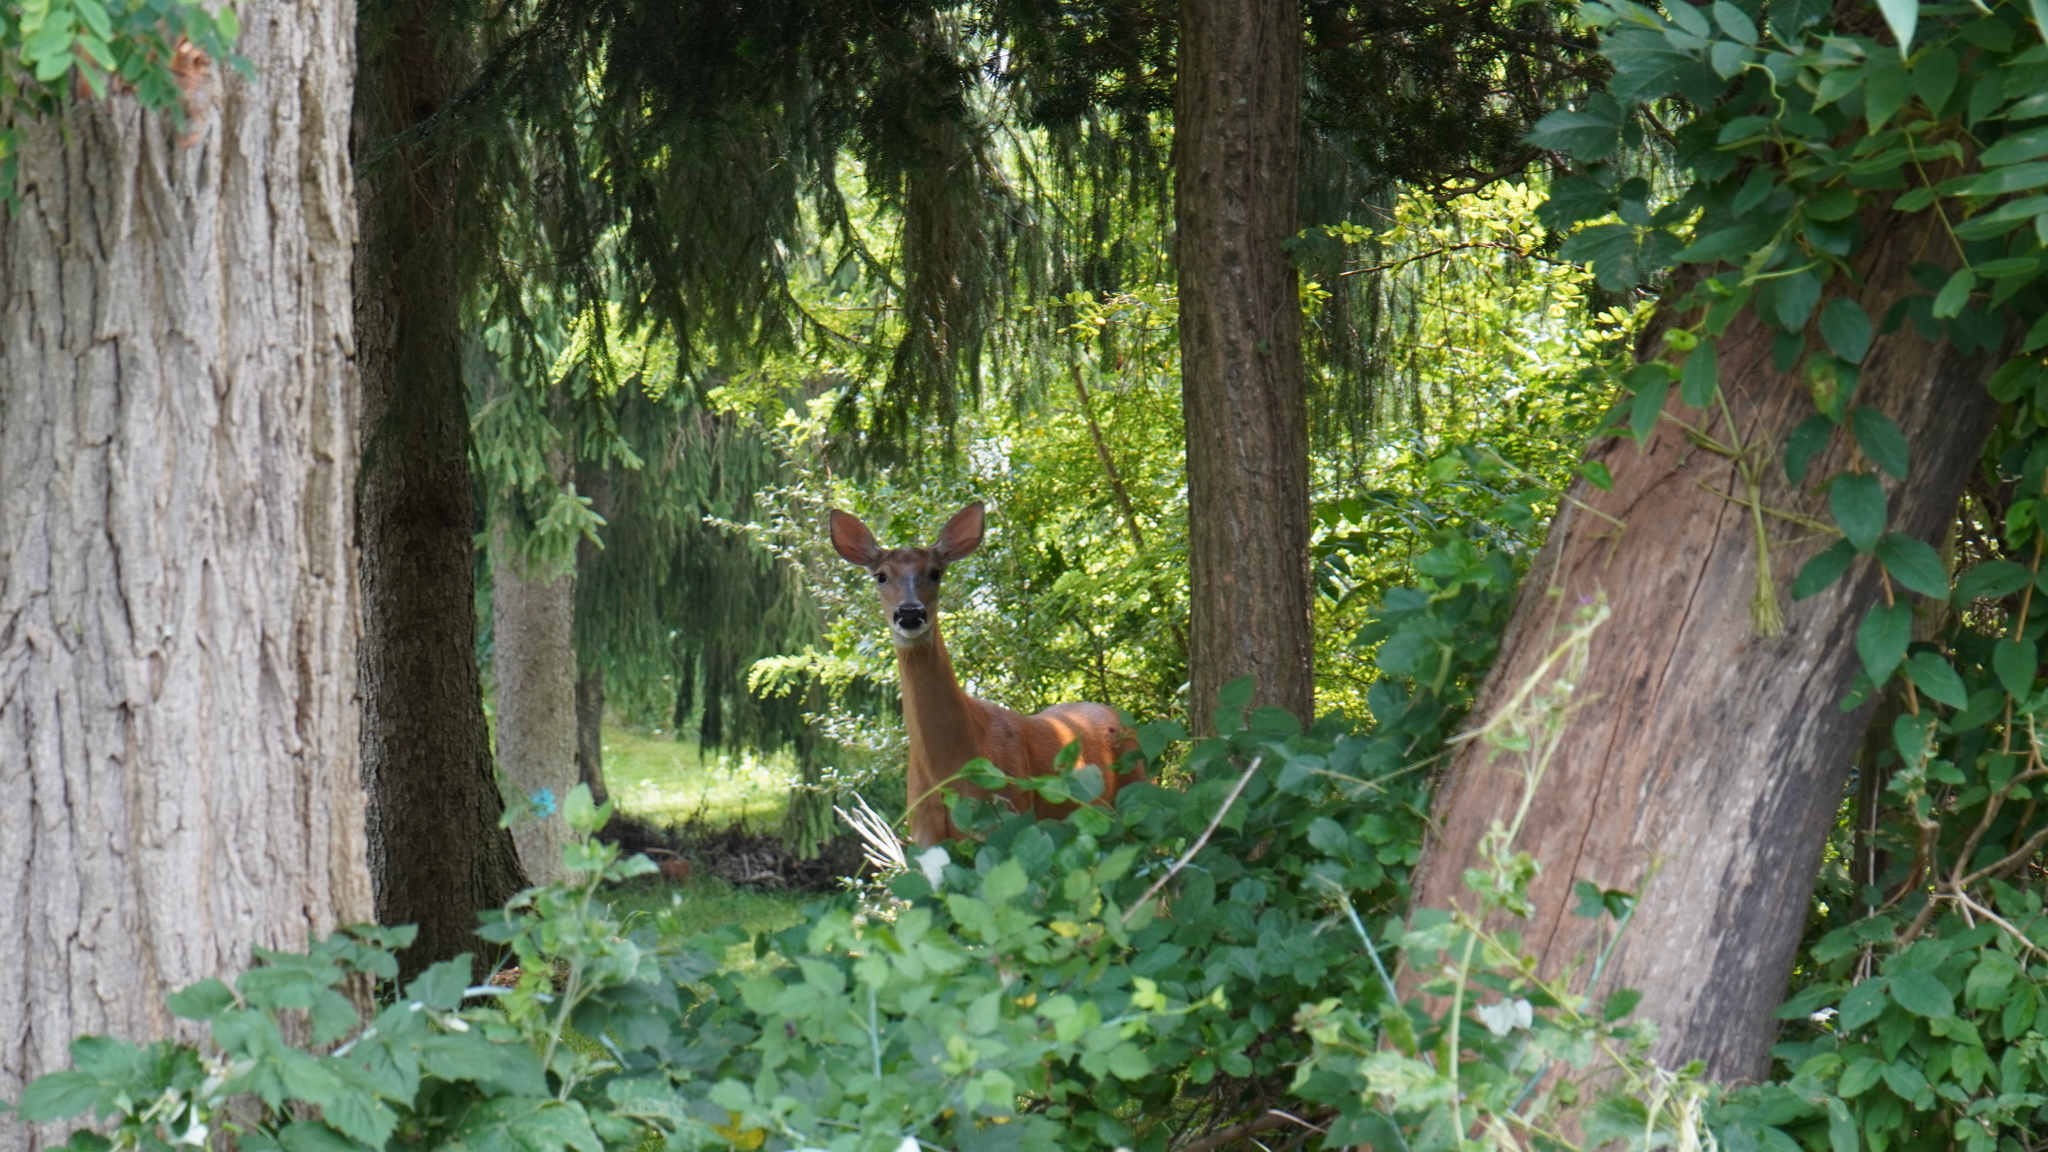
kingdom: Animalia
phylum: Chordata
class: Mammalia
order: Artiodactyla
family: Cervidae
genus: Odocoileus
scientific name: Odocoileus virginianus
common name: White-tailed deer
